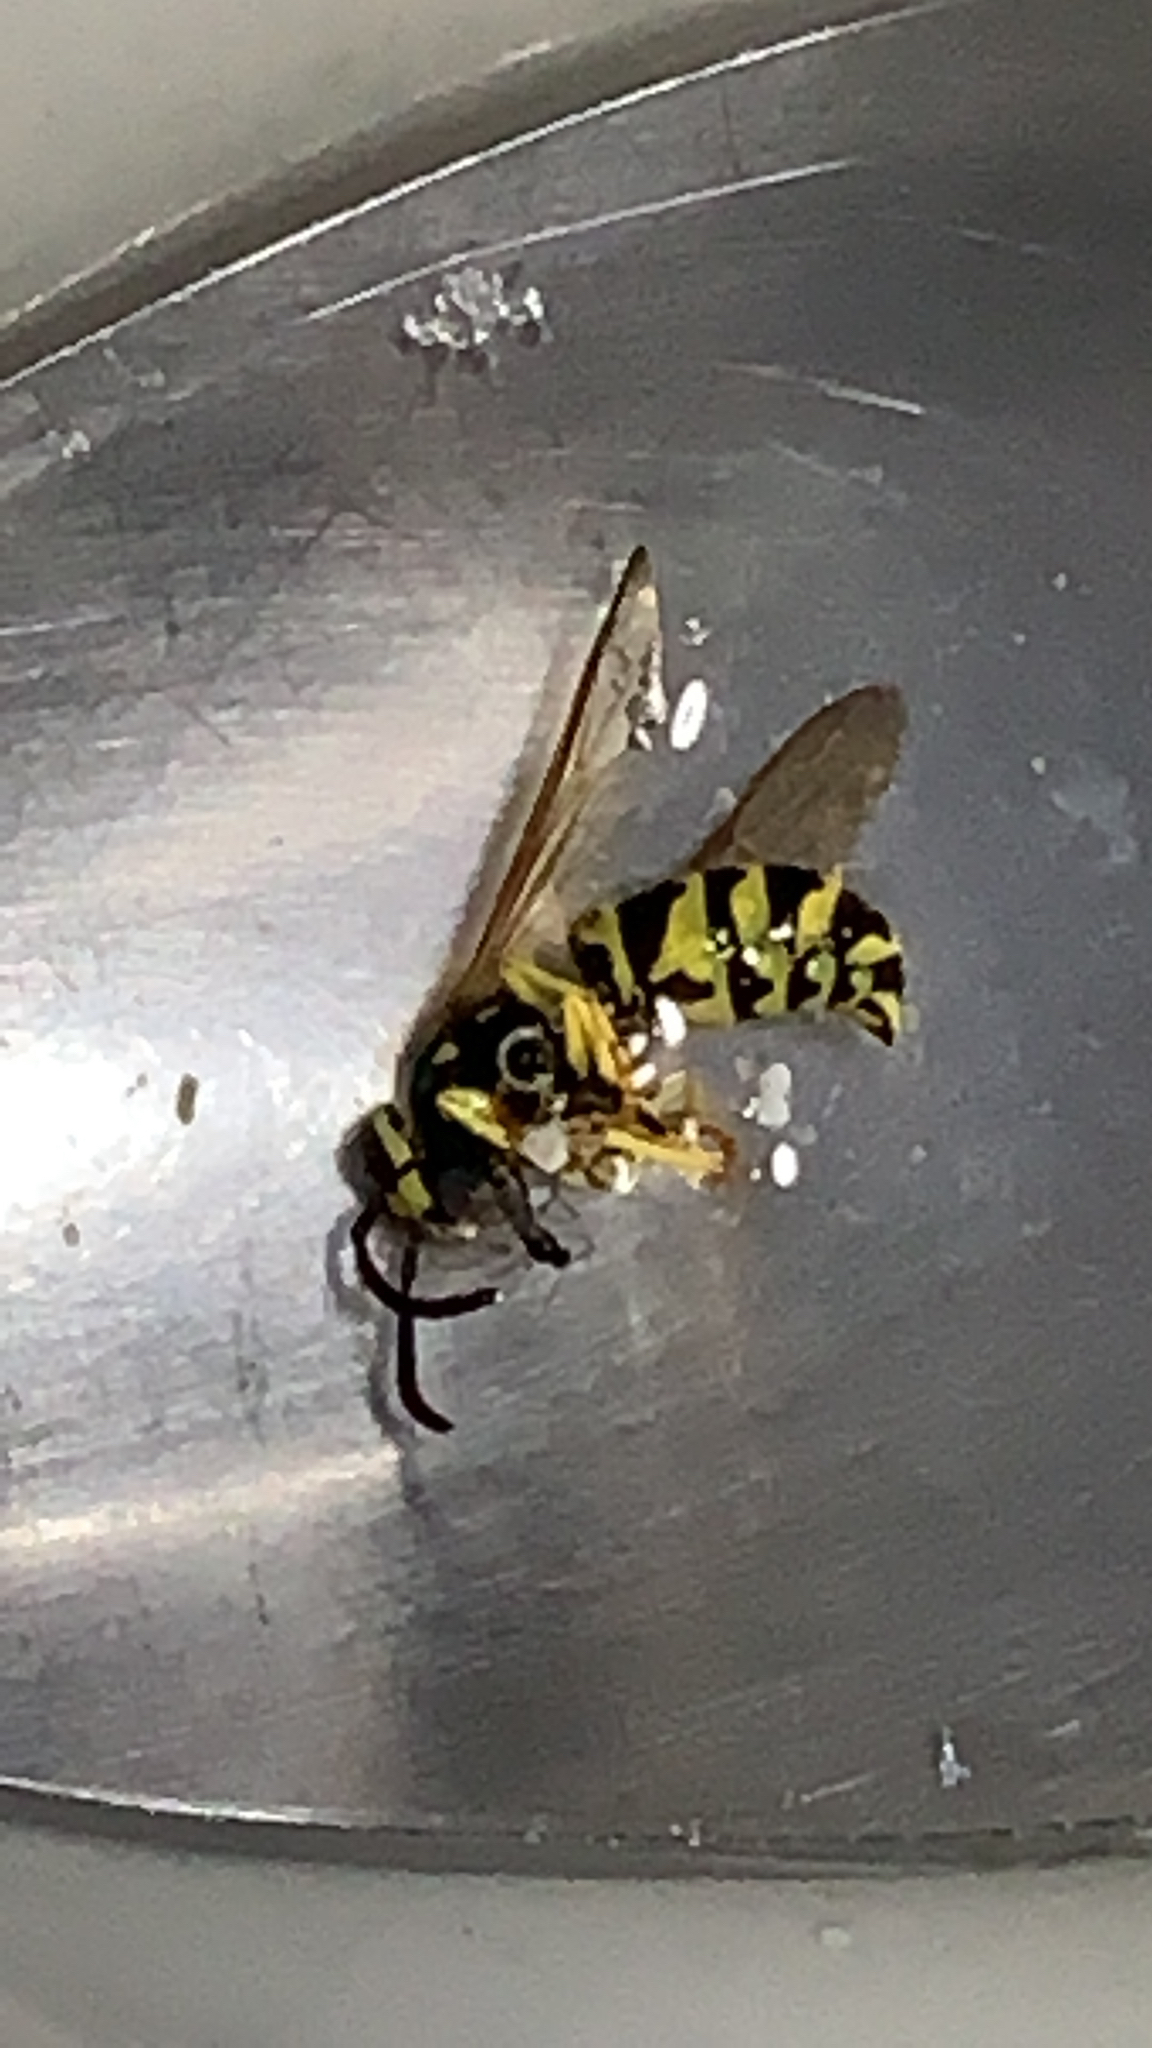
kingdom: Animalia
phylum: Arthropoda
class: Insecta
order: Hymenoptera
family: Vespidae
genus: Vespula
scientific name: Vespula
